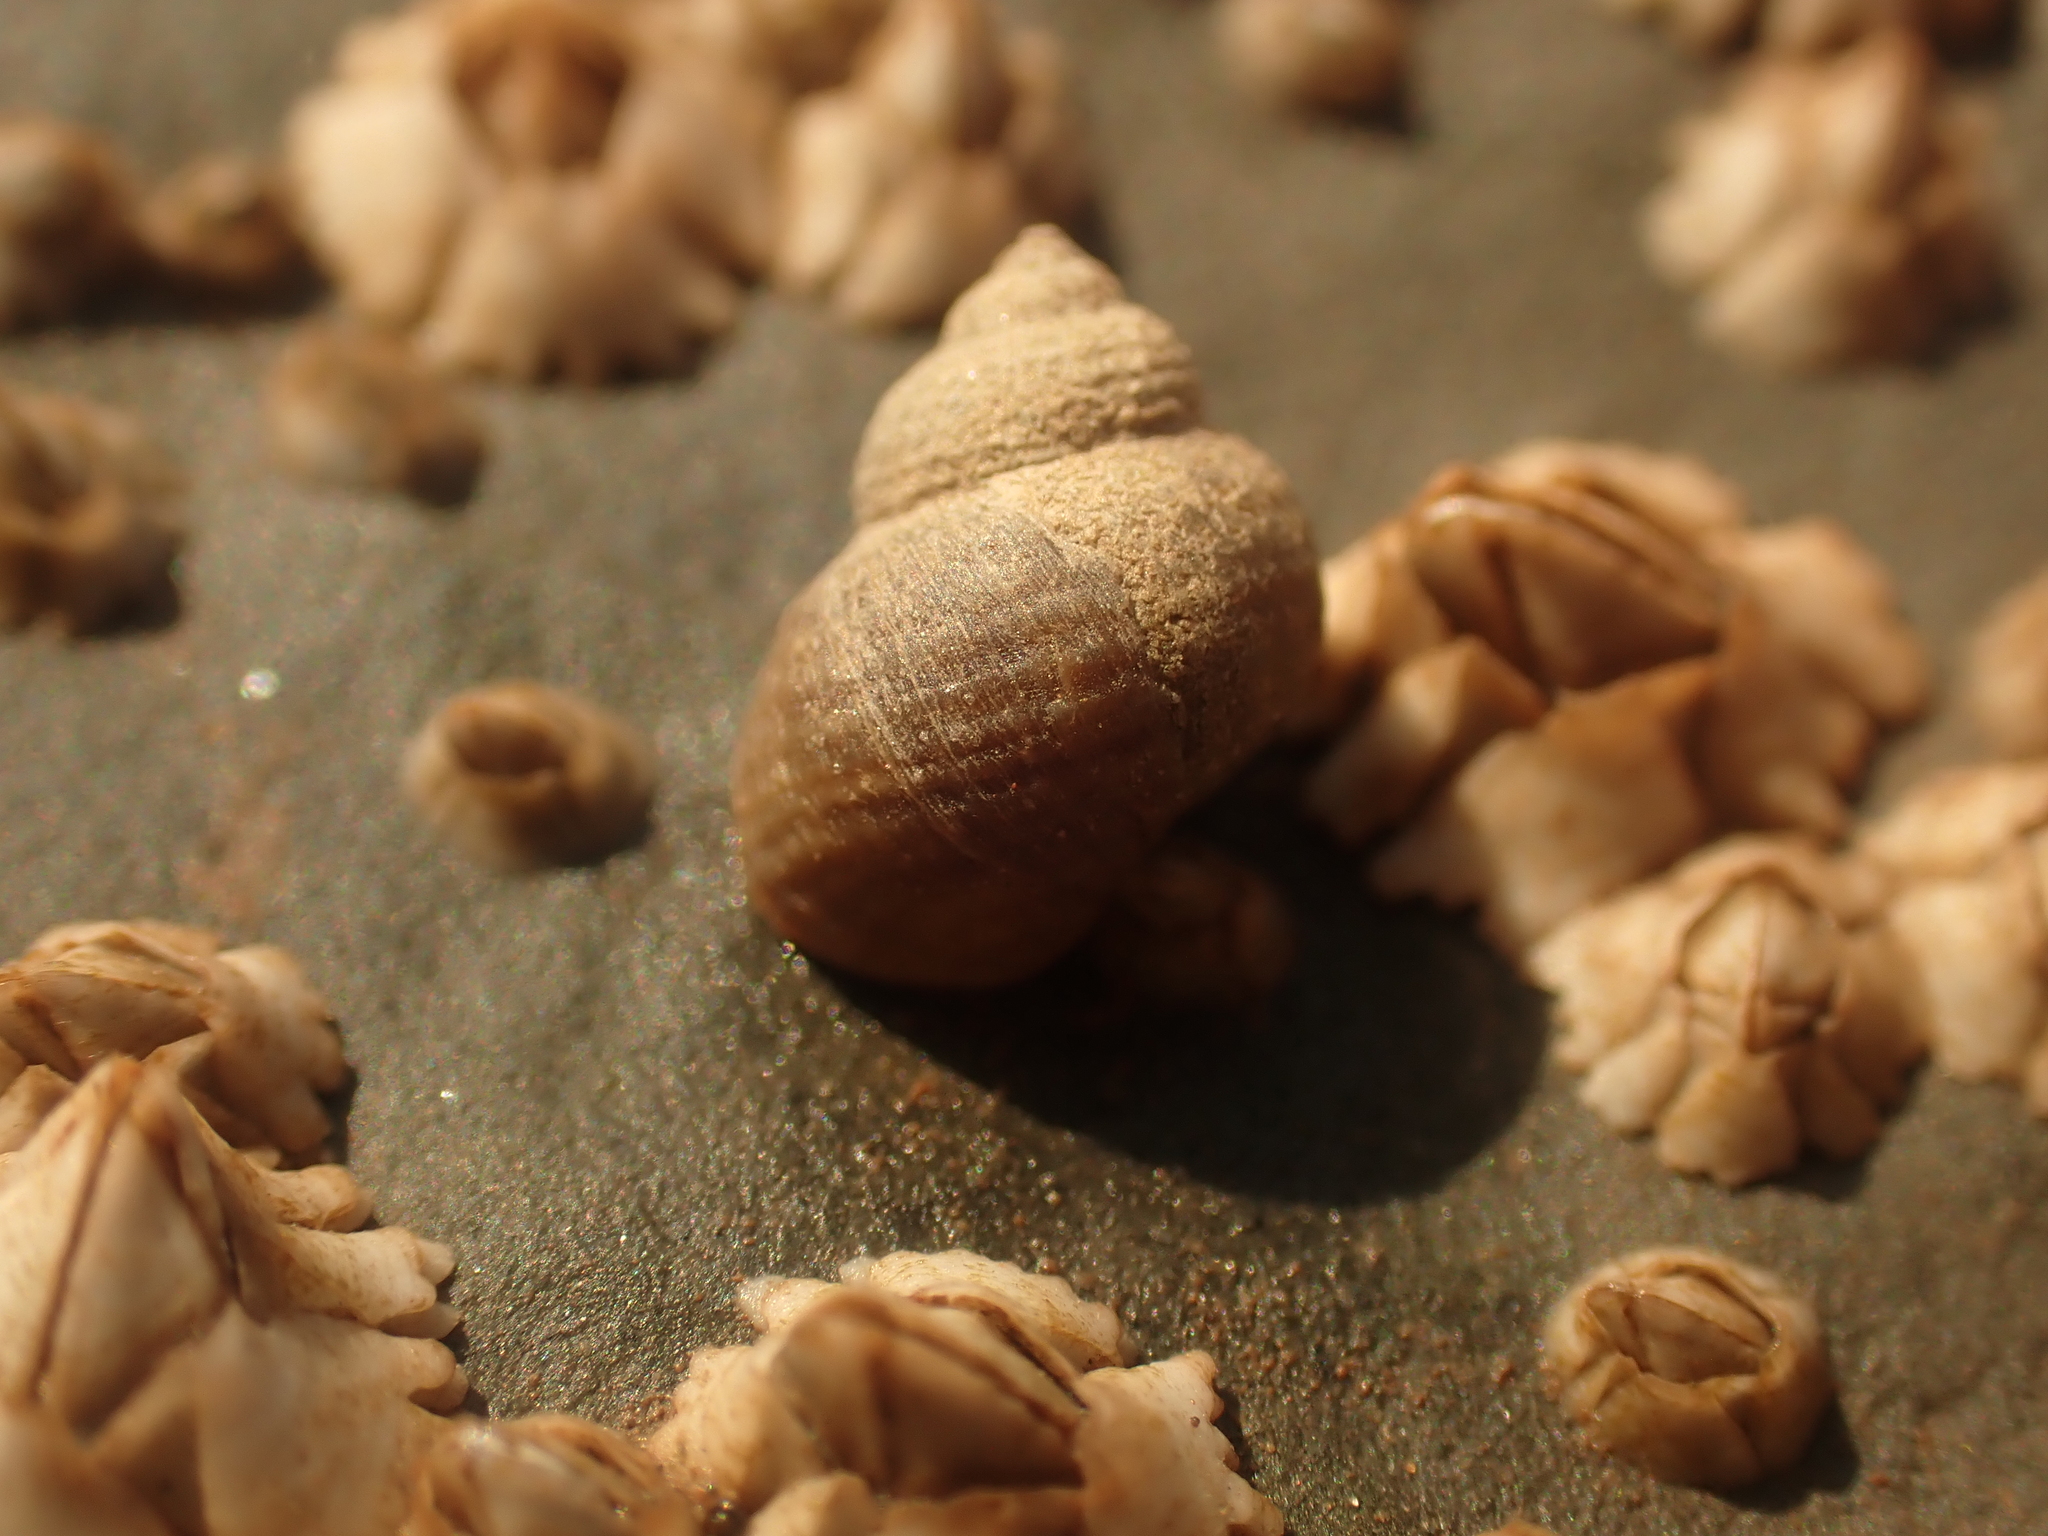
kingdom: Animalia
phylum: Mollusca
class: Gastropoda
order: Littorinimorpha
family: Littorinidae
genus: Littorina
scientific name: Littorina saxatilis
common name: Black-lined periwinkle
